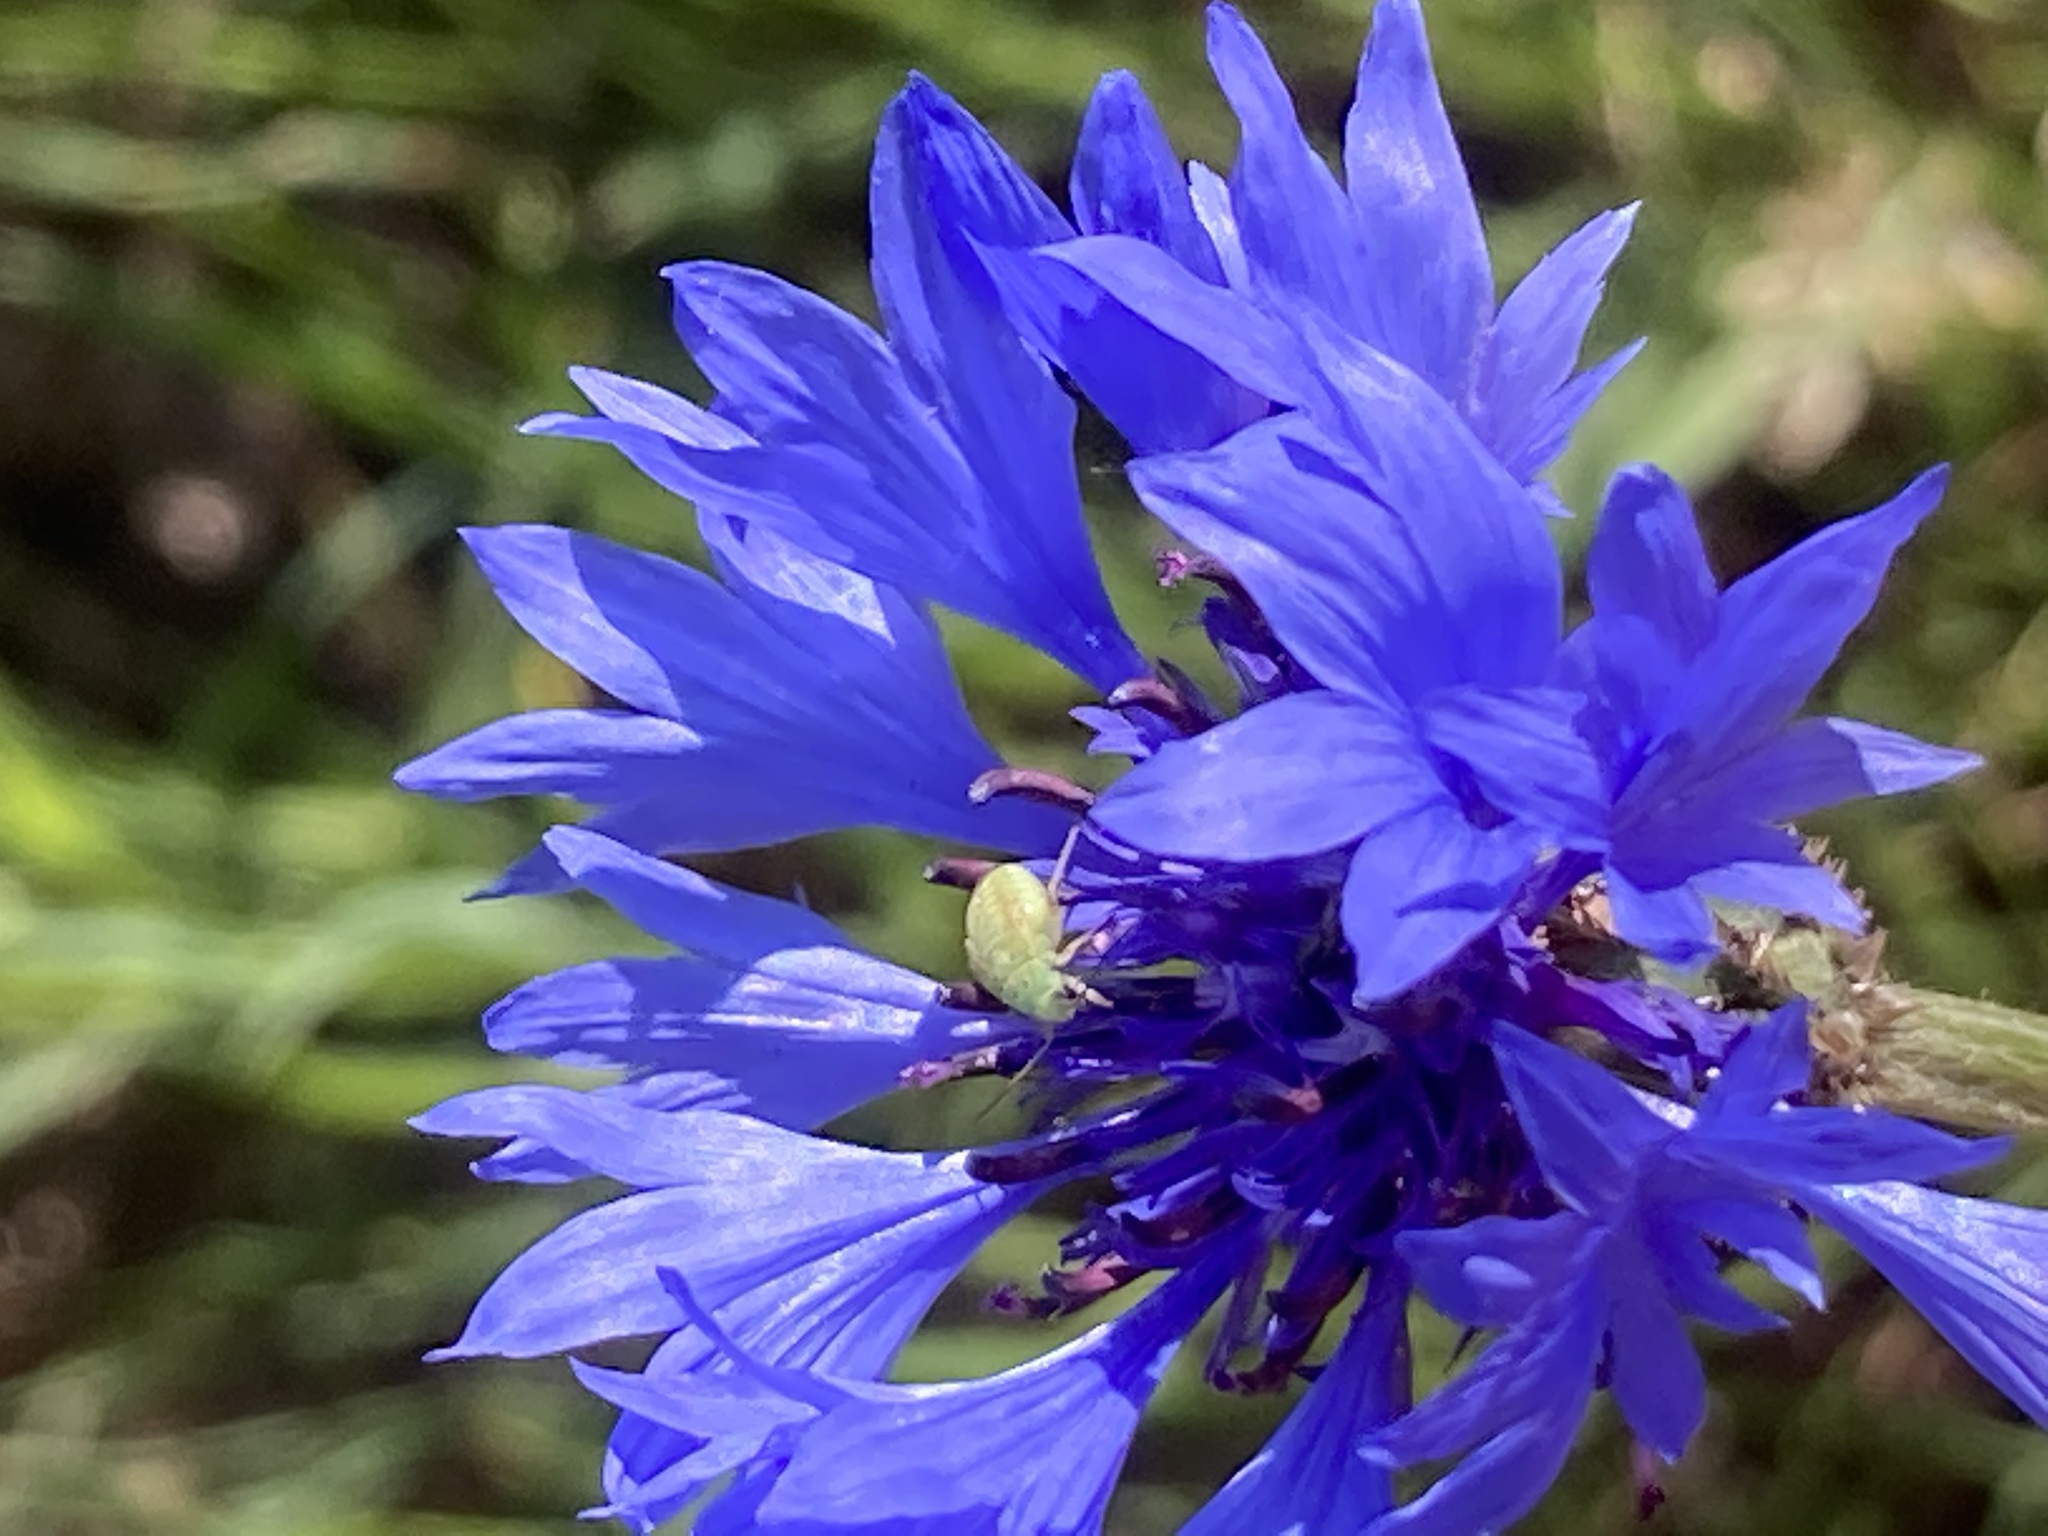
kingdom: Plantae
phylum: Tracheophyta
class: Magnoliopsida
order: Asterales
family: Asteraceae
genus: Centaurea
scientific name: Centaurea cyanus
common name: Cornflower
